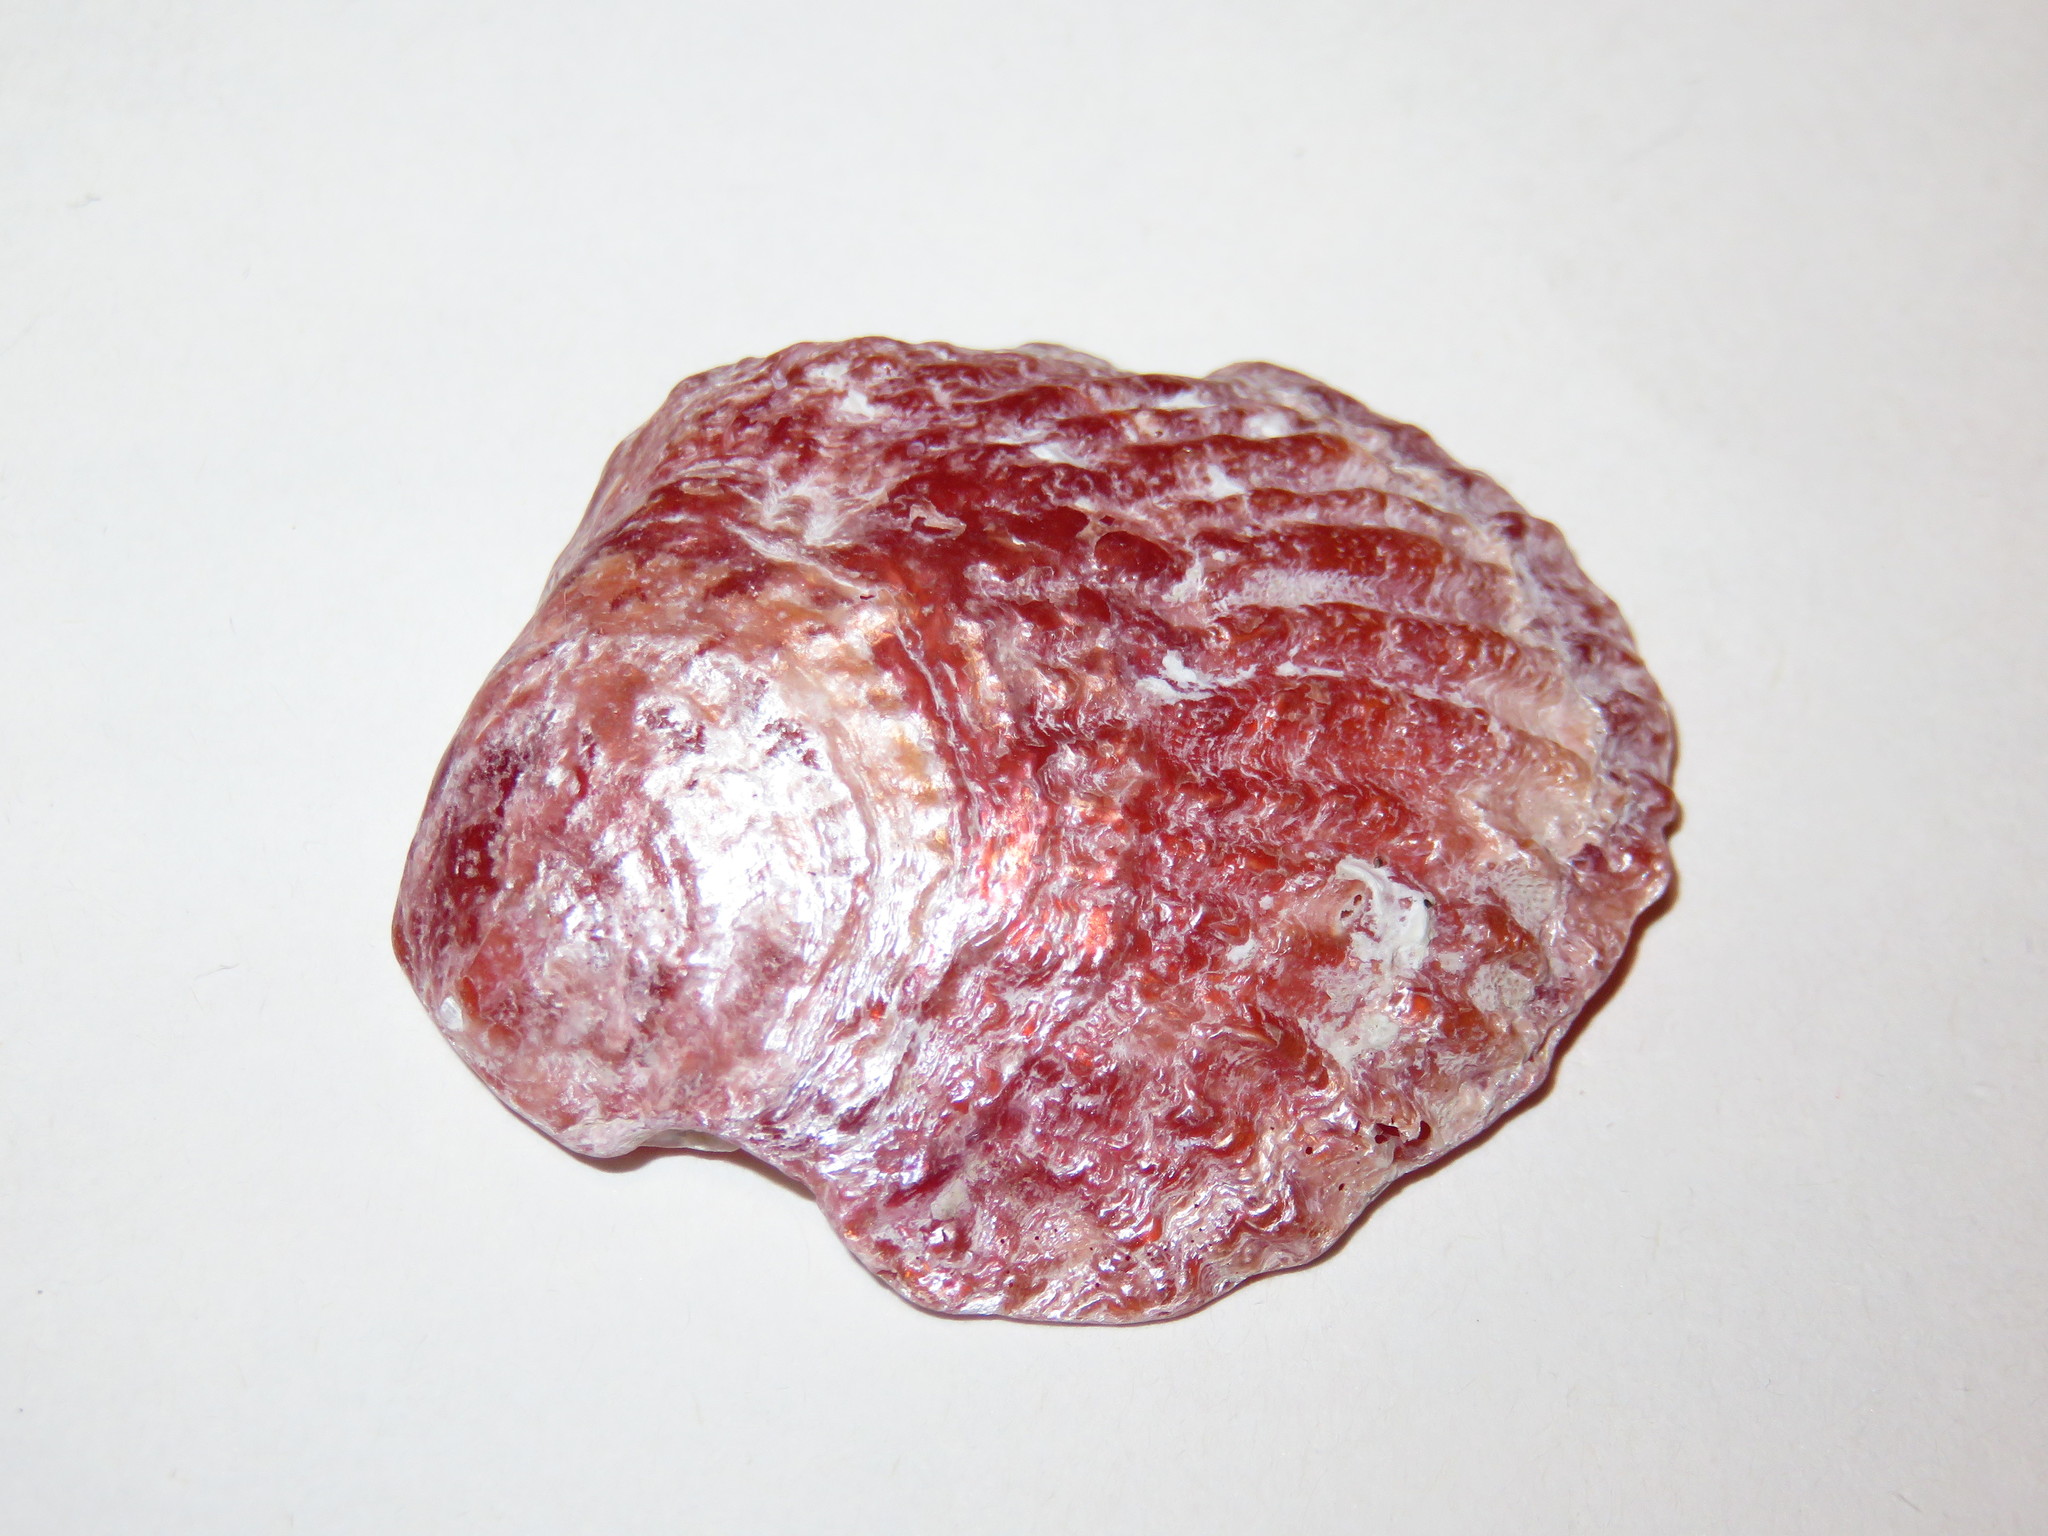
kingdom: Animalia
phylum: Mollusca
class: Bivalvia
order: Pectinida
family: Anomiidae
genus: Anomia
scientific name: Anomia chinensis
